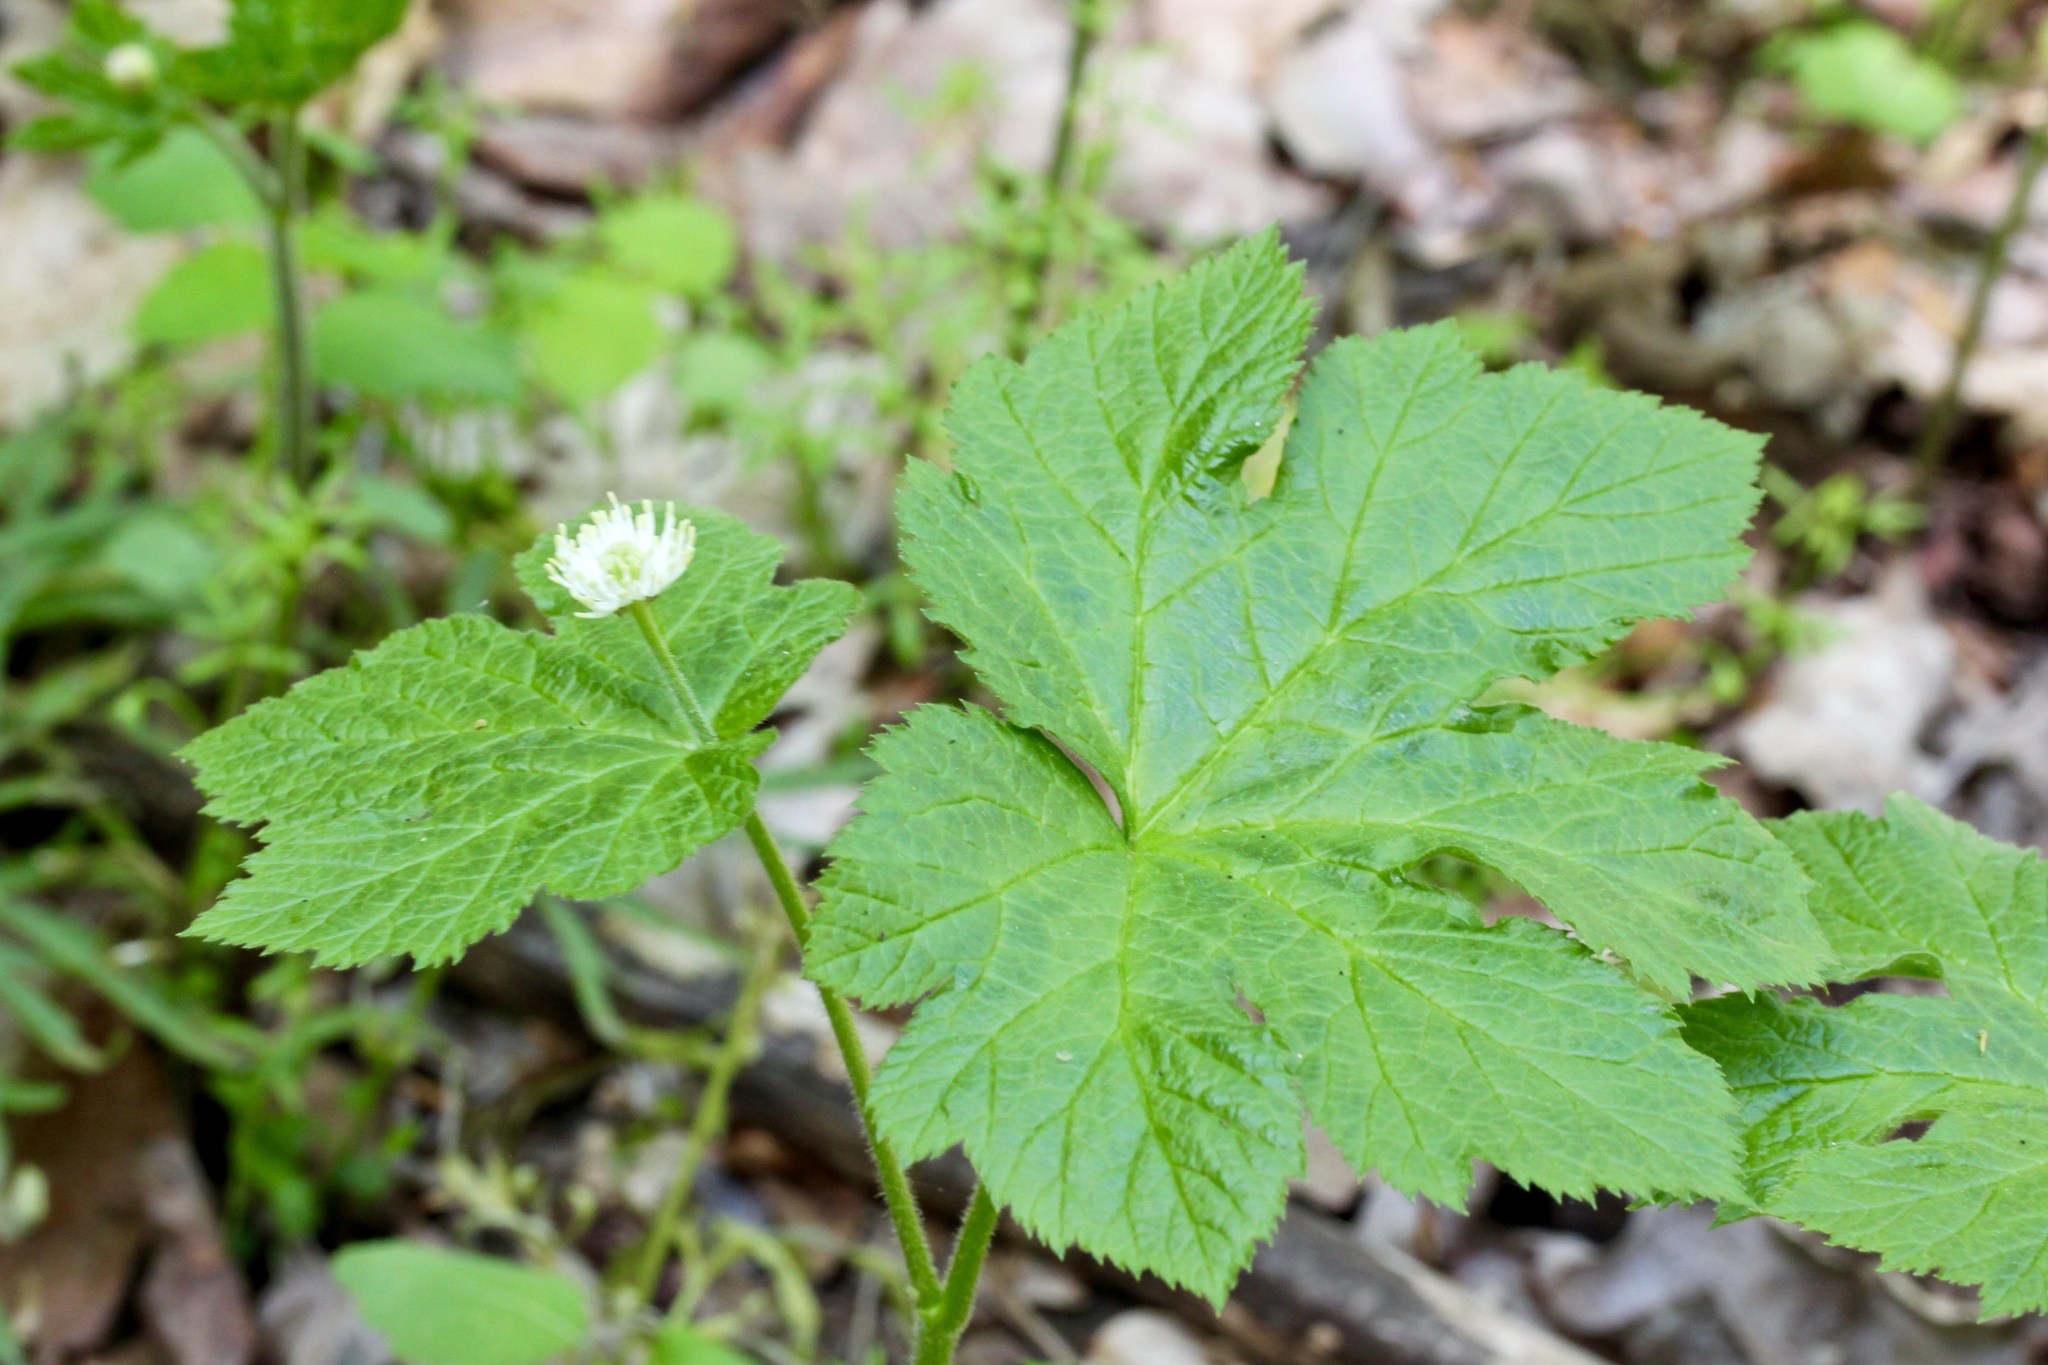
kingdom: Plantae
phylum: Tracheophyta
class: Magnoliopsida
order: Ranunculales
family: Ranunculaceae
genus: Hydrastis
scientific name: Hydrastis canadensis
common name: Goldenseal
